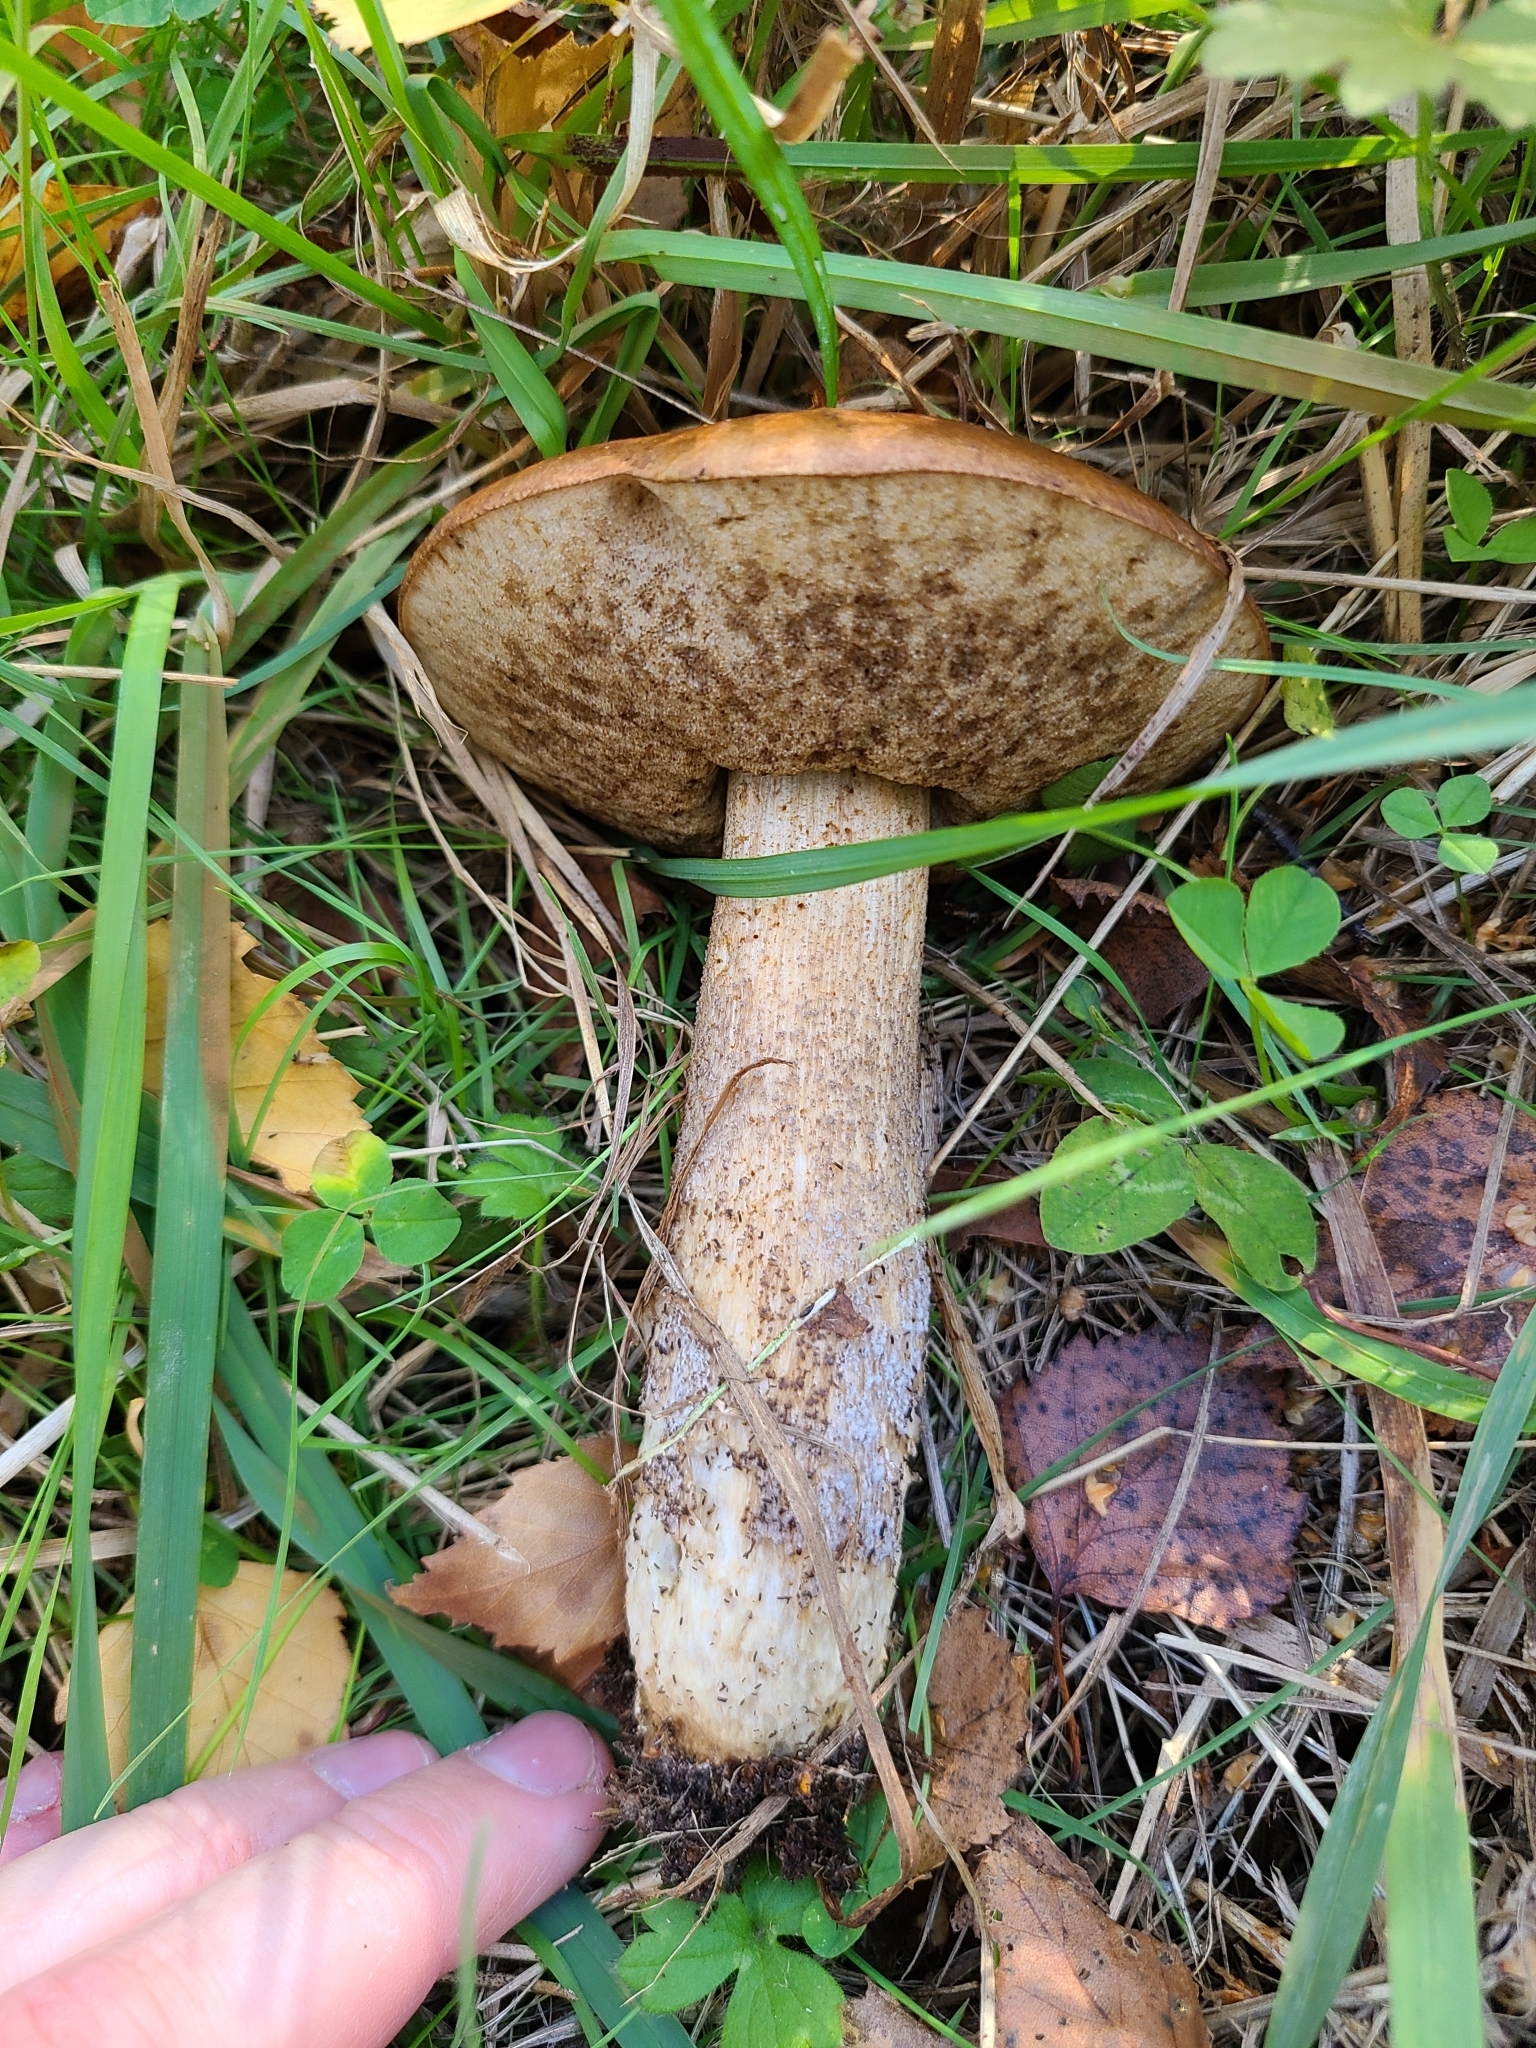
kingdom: Fungi
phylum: Basidiomycota
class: Agaricomycetes
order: Boletales
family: Boletaceae
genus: Leccinum
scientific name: Leccinum scabrum
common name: Blushing bolete
